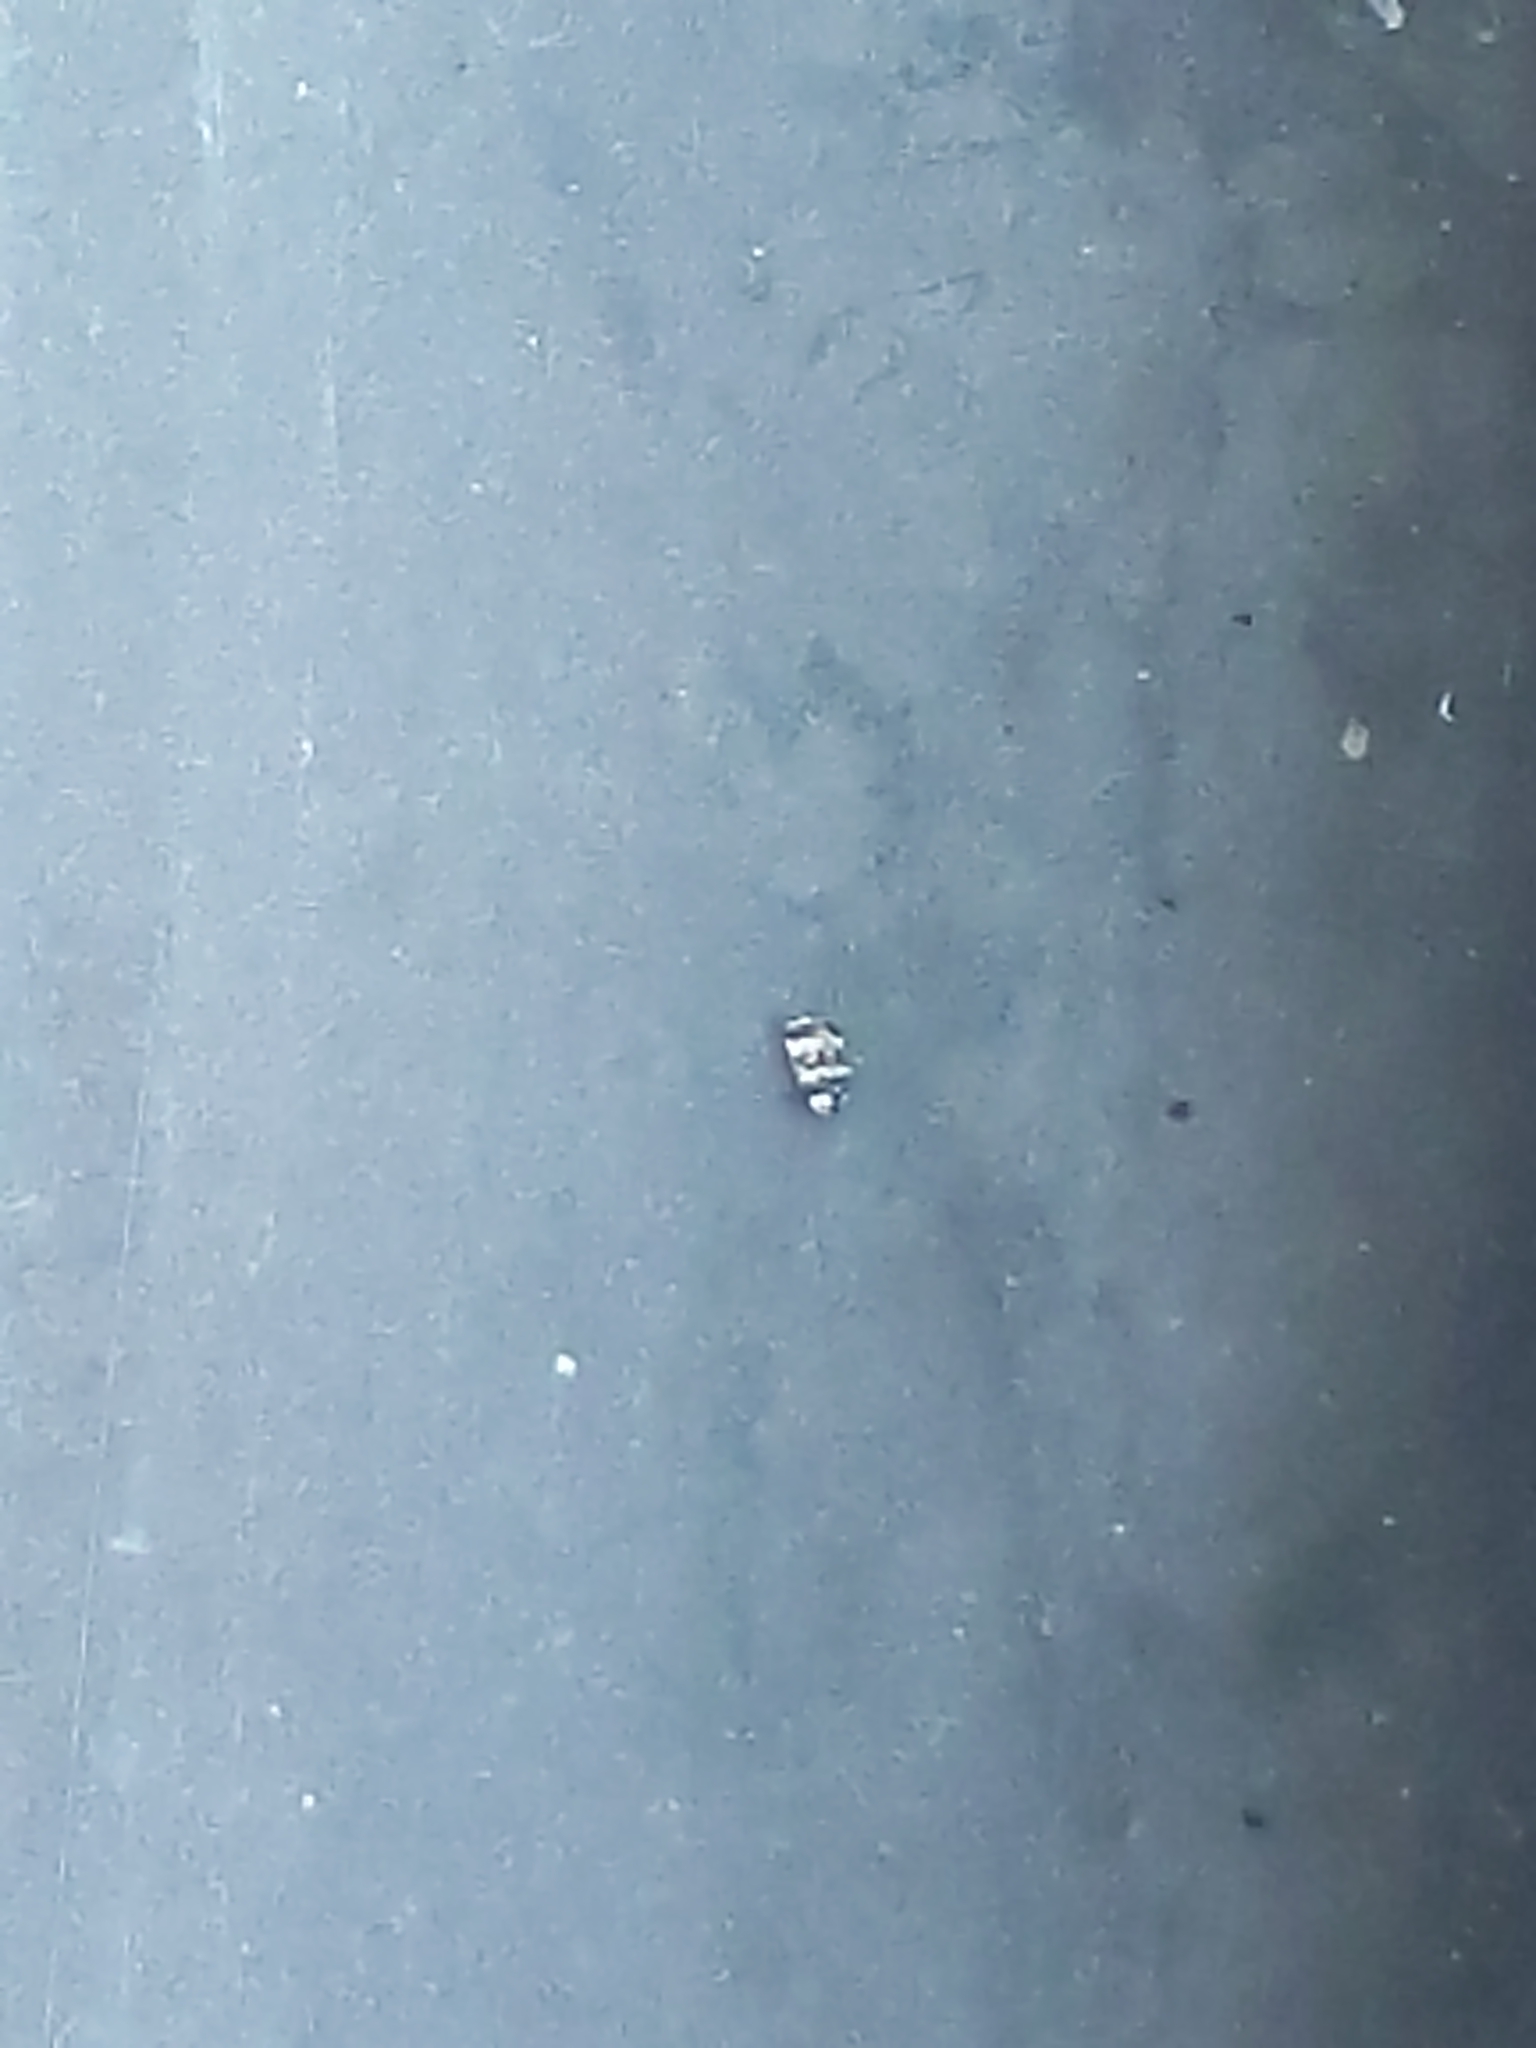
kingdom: Animalia
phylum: Arthropoda
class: Insecta
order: Coleoptera
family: Dermestidae
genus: Anthrenus
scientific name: Anthrenus coloratus
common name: Auger beetle
